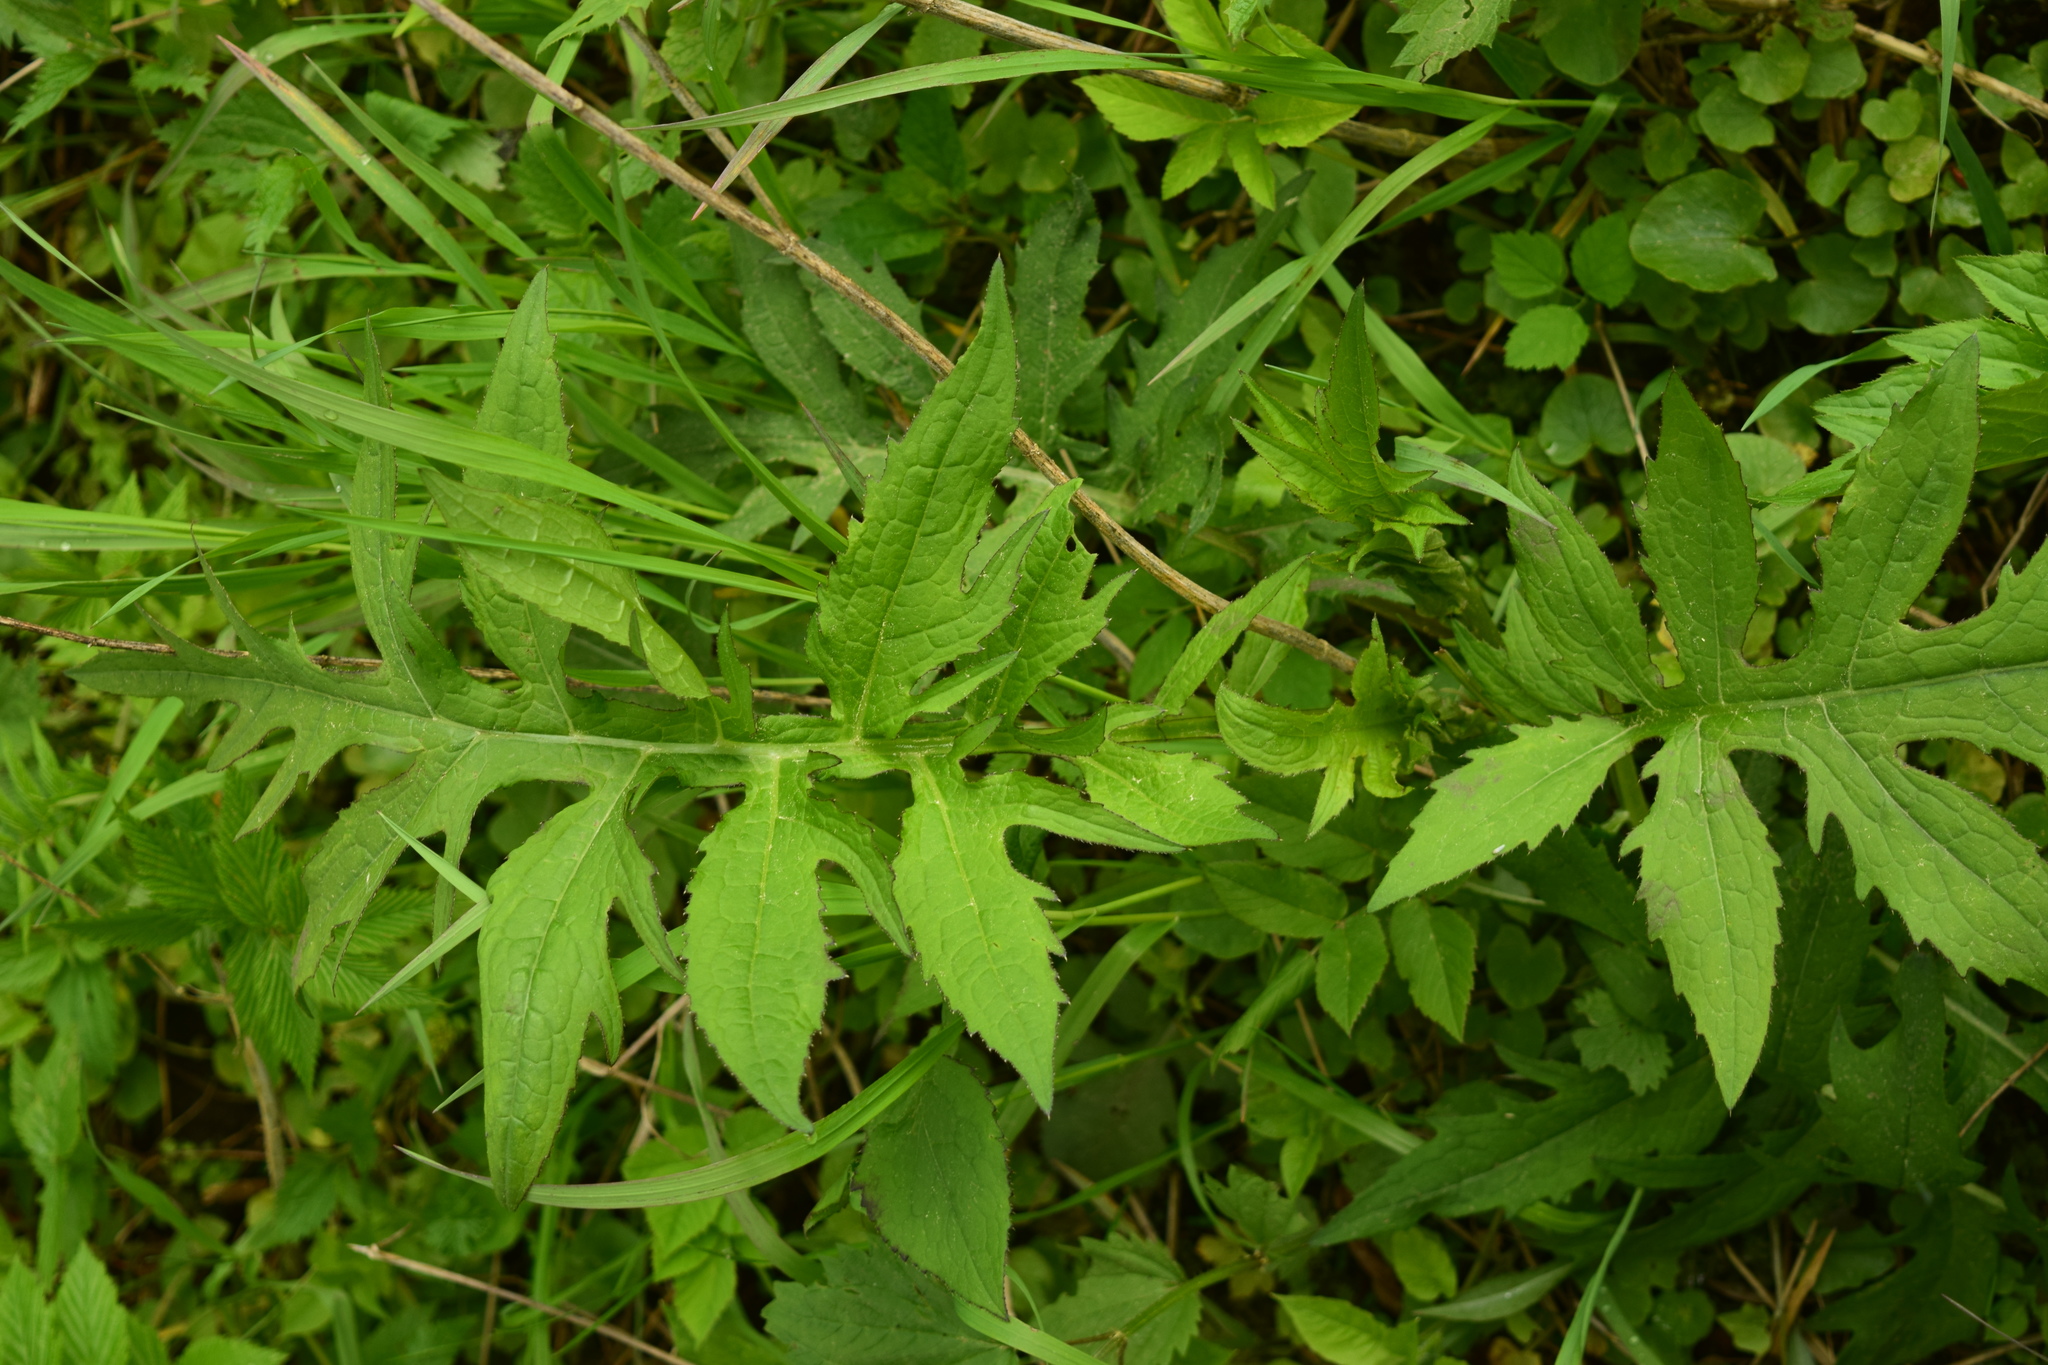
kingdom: Plantae
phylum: Tracheophyta
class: Magnoliopsida
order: Asterales
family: Asteraceae
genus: Cirsium
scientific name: Cirsium oleraceum
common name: Cabbage thistle
